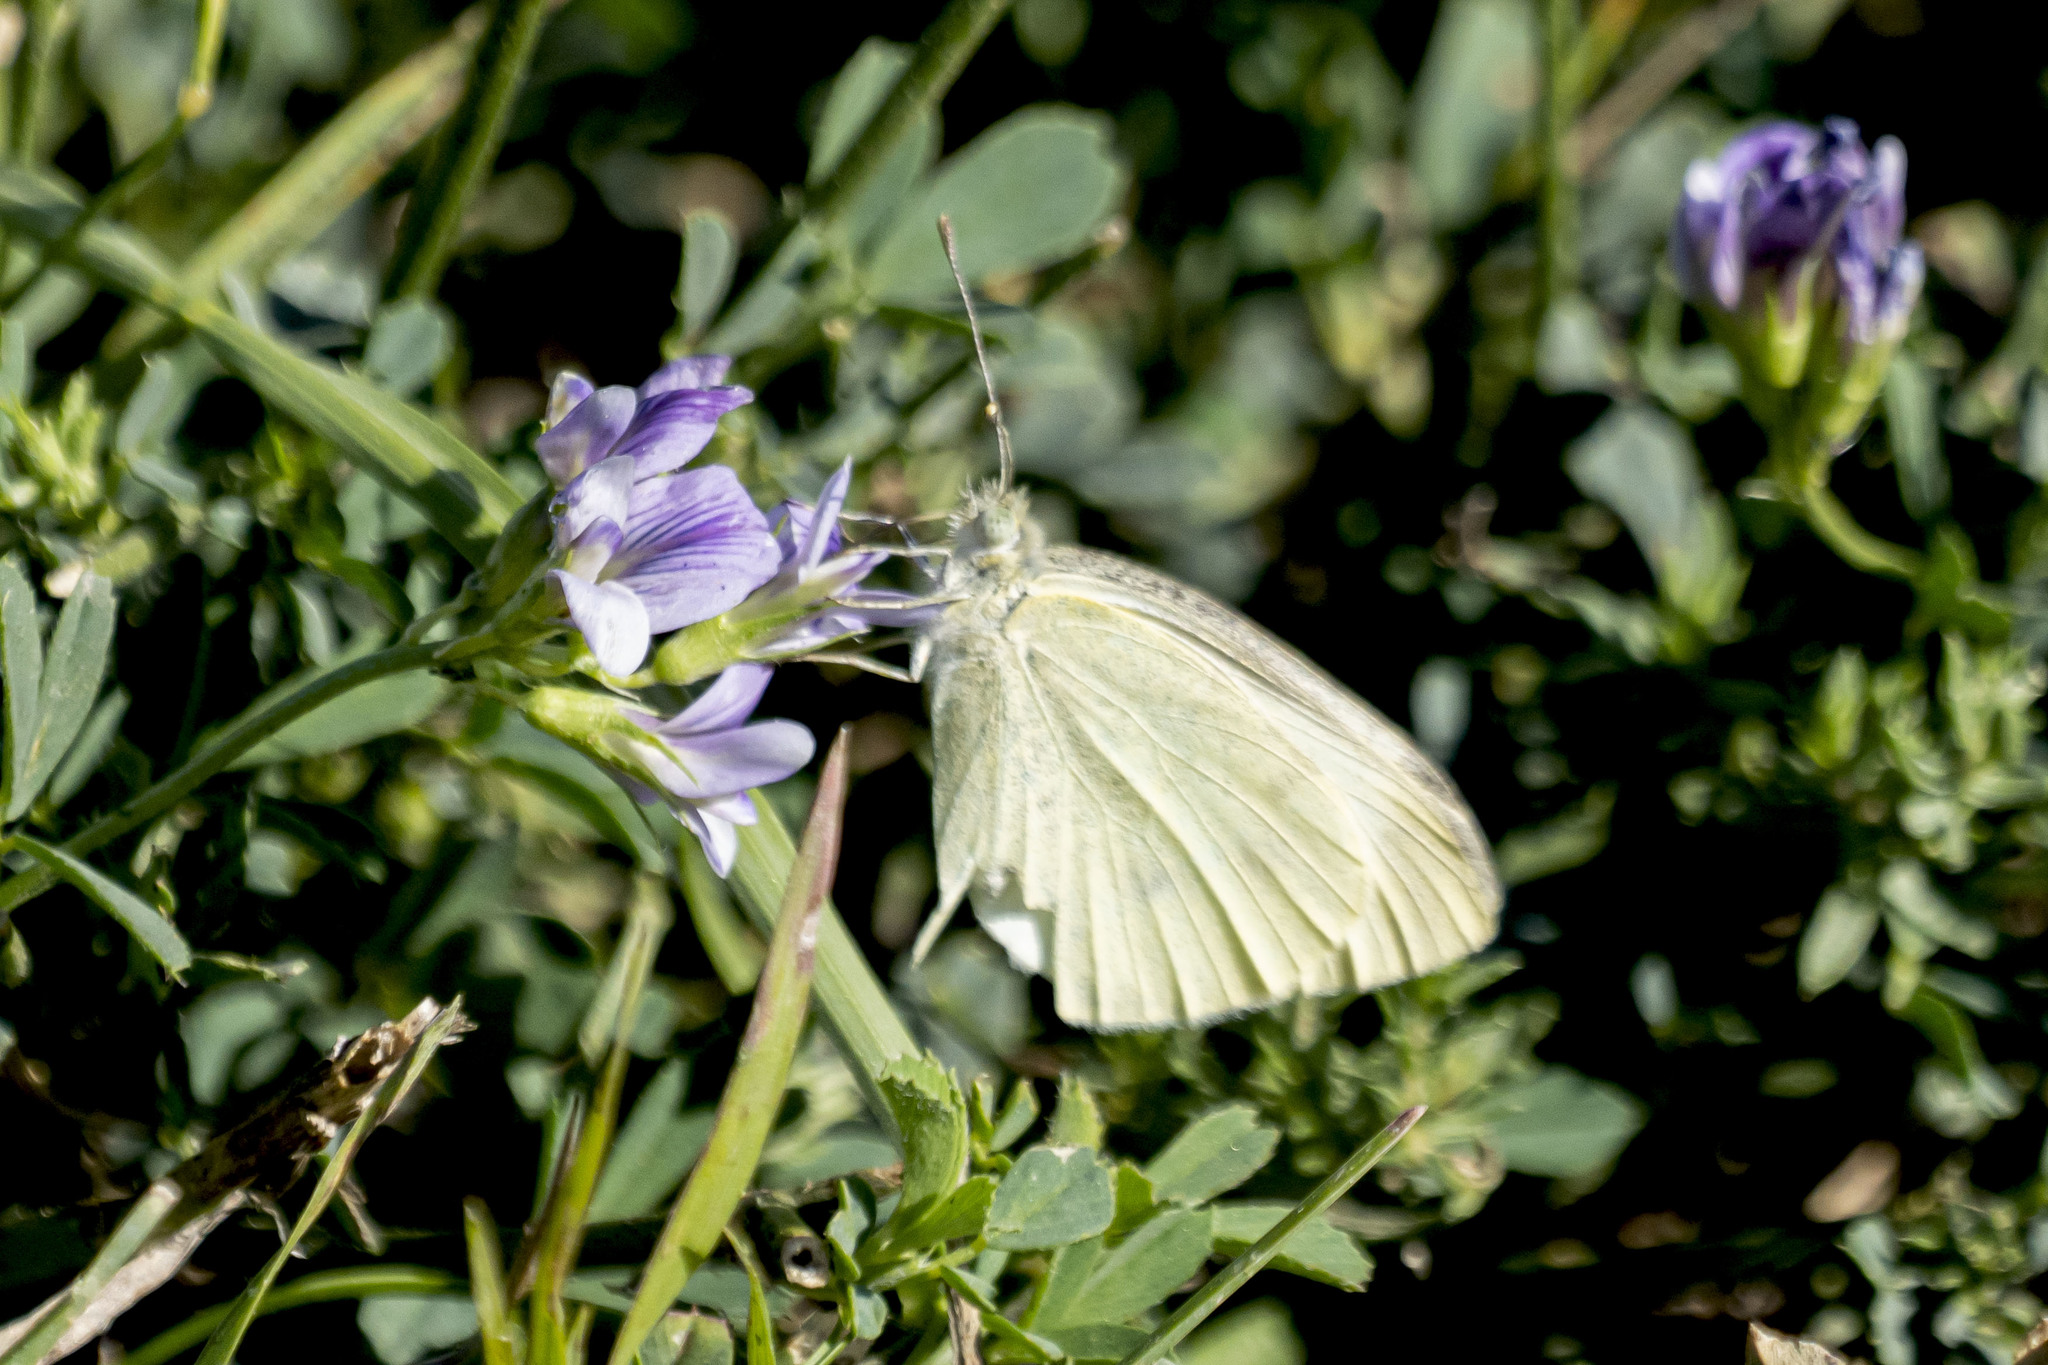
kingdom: Animalia
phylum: Arthropoda
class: Insecta
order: Lepidoptera
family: Pieridae
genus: Pieris
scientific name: Pieris rapae
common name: Small white
